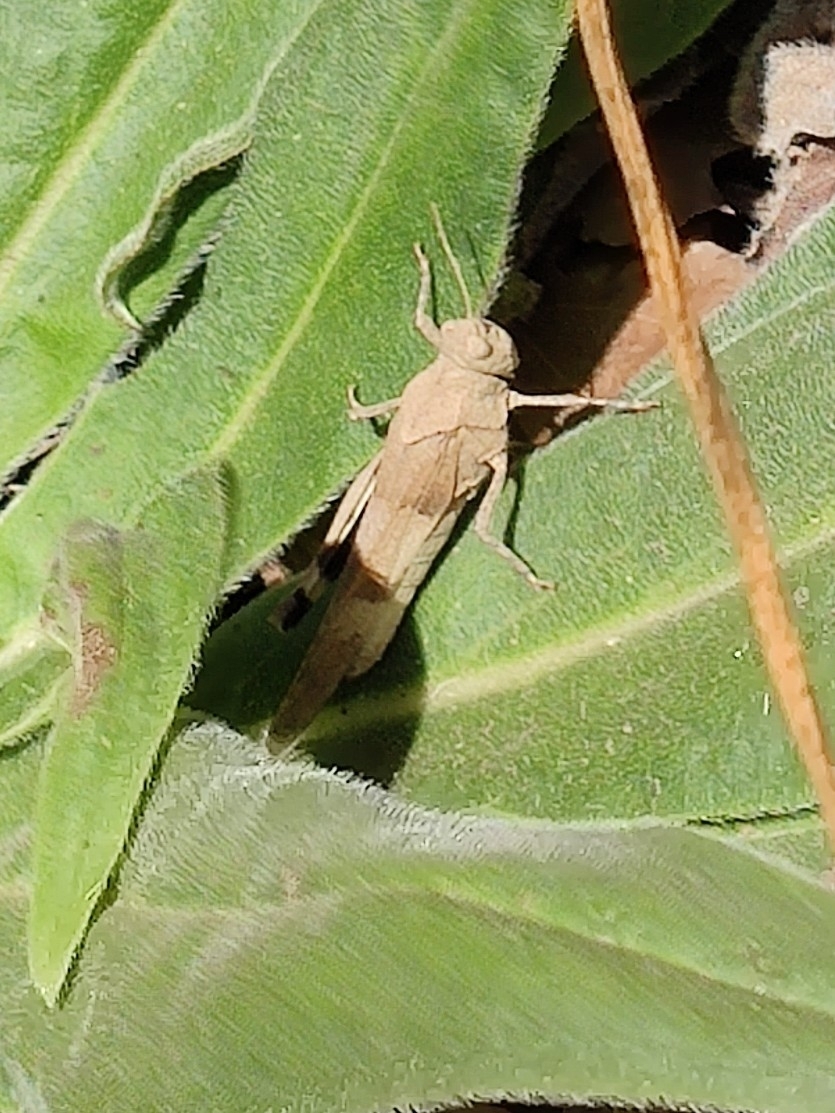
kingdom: Animalia
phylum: Arthropoda
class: Insecta
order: Orthoptera
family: Acrididae
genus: Oedipoda
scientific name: Oedipoda caerulescens
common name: Blue-winged grasshopper
